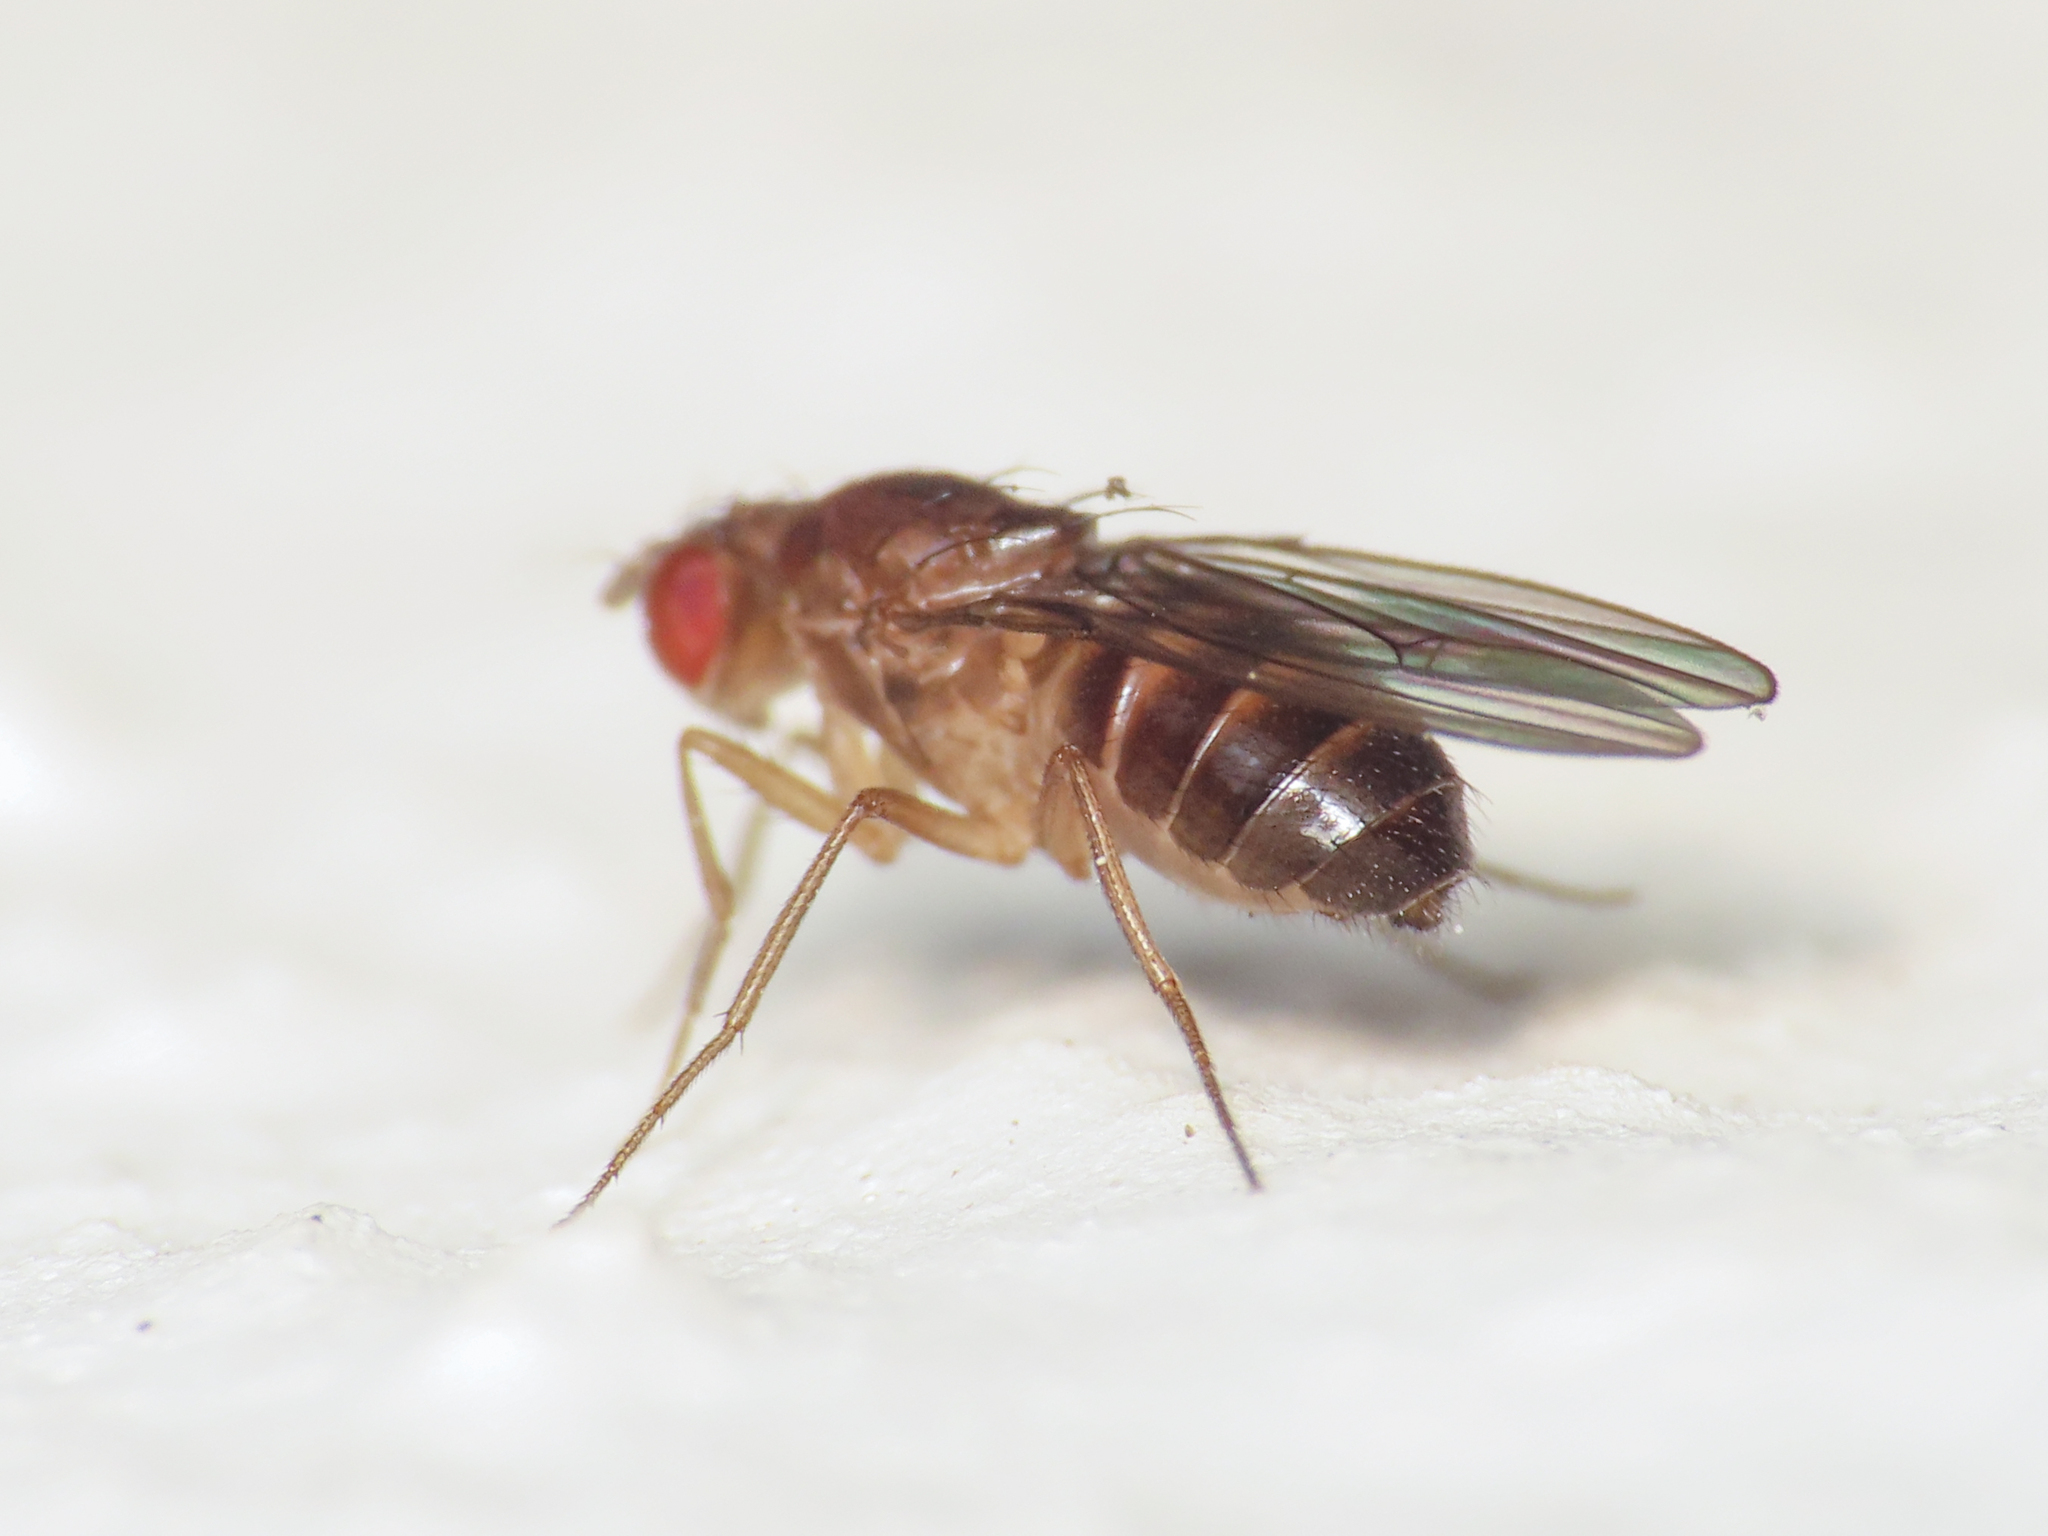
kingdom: Animalia
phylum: Arthropoda
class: Insecta
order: Diptera
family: Drosophilidae
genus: Drosophila
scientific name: Drosophila funebris
